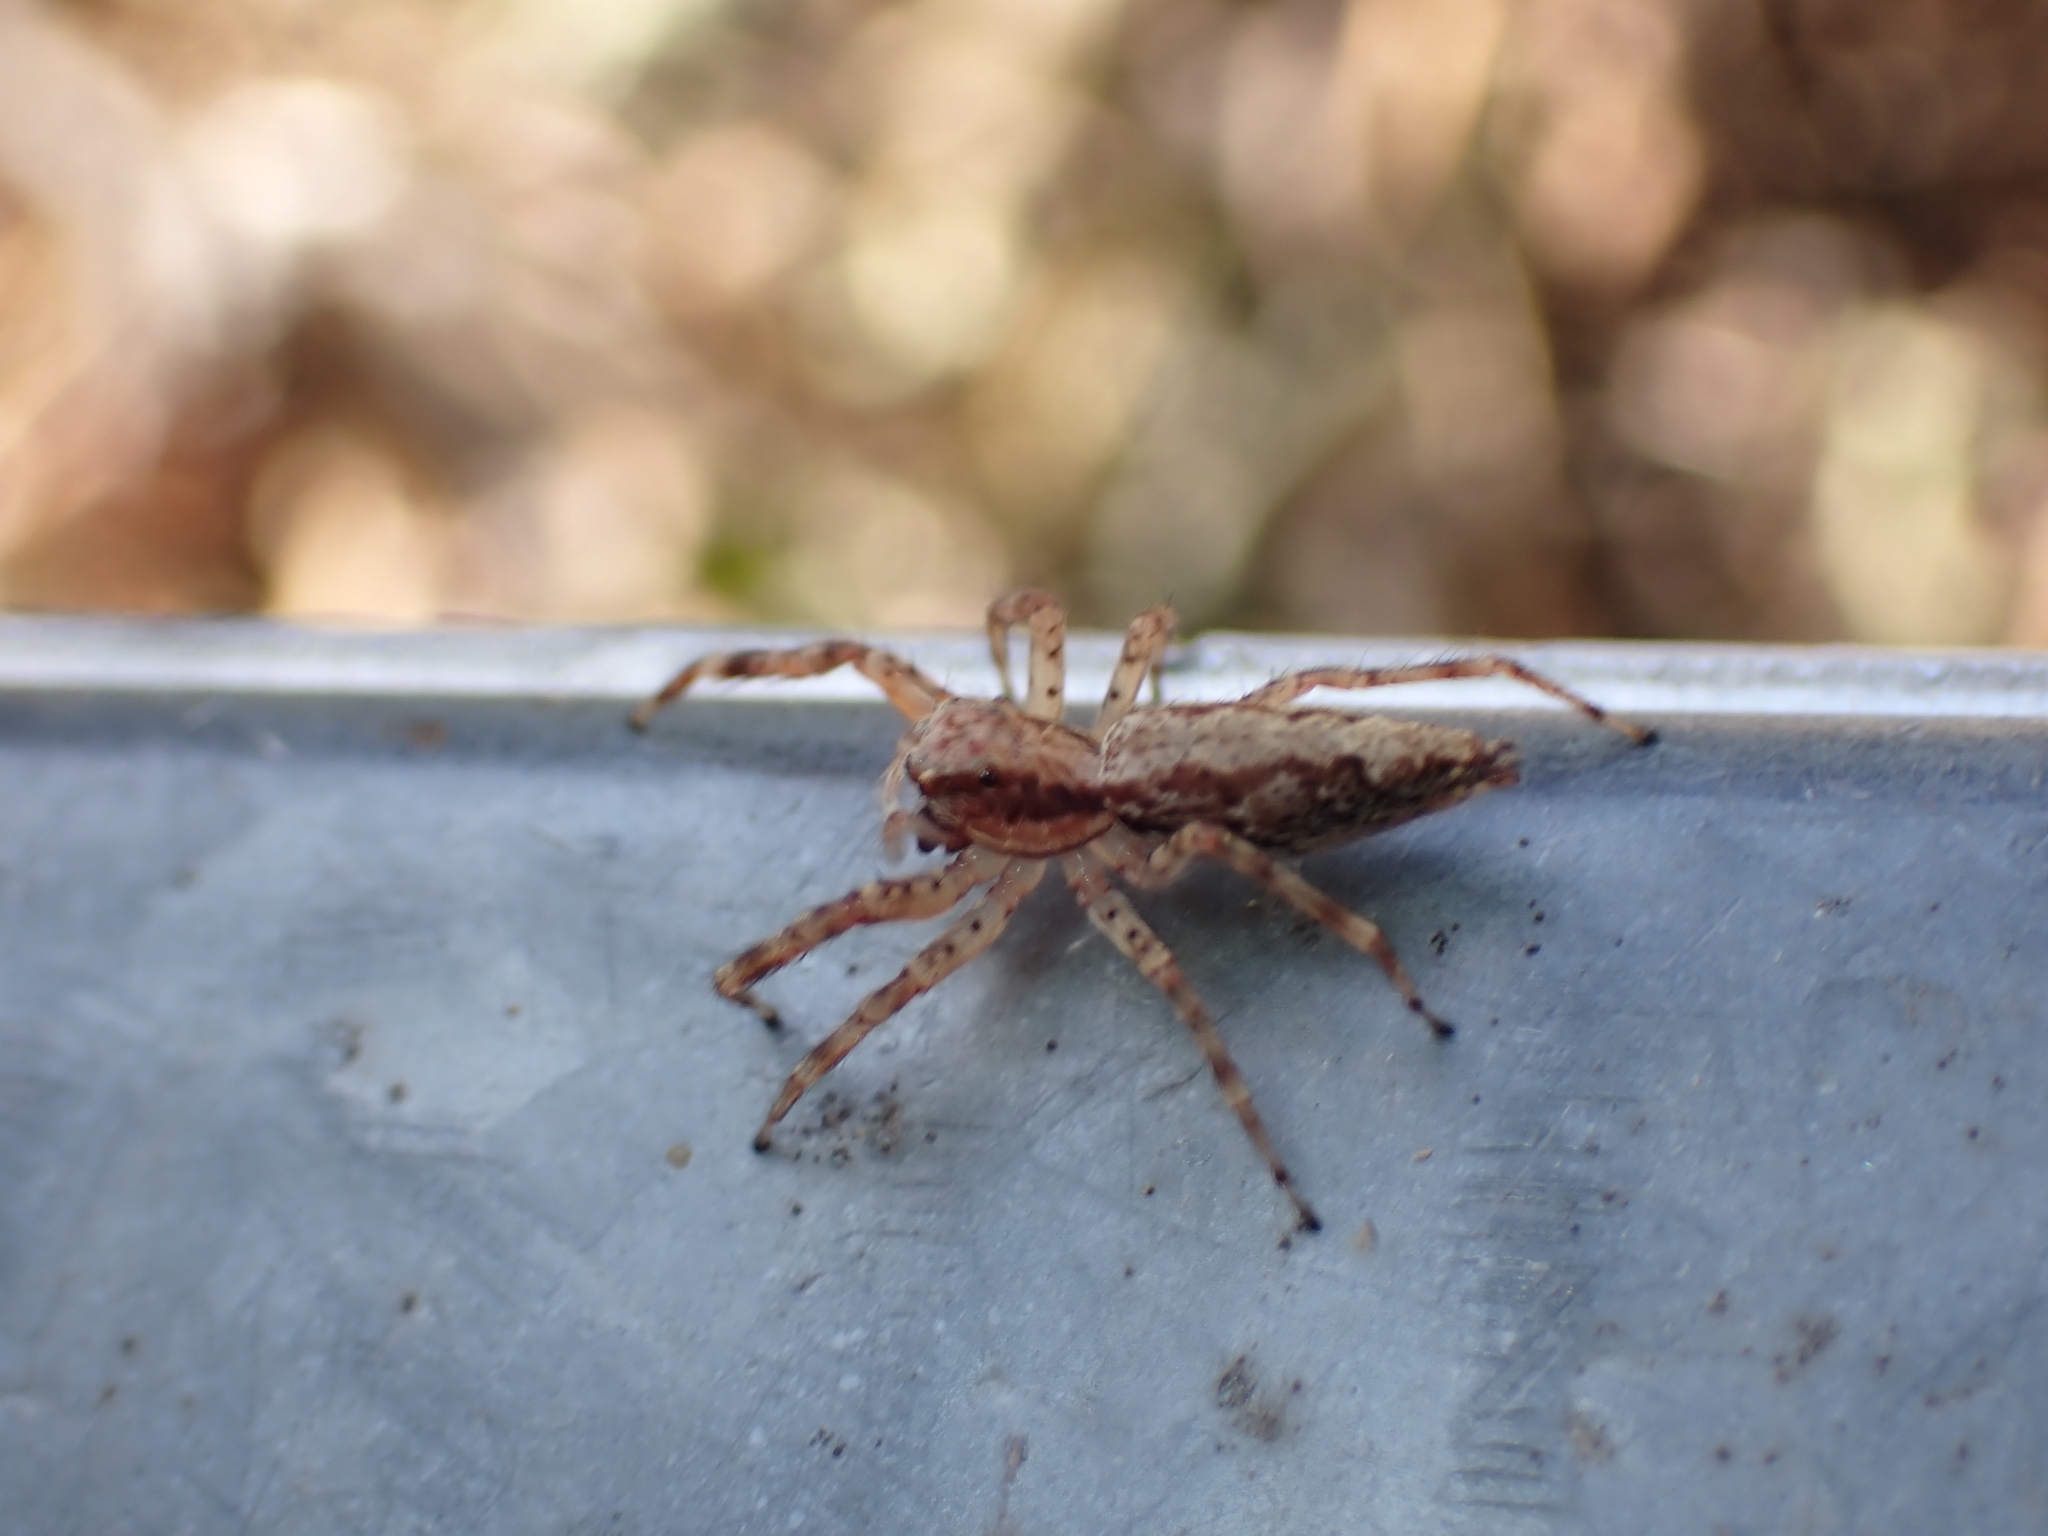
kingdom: Animalia
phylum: Arthropoda
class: Arachnida
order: Araneae
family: Salticidae
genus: Helpis
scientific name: Helpis minitabunda
